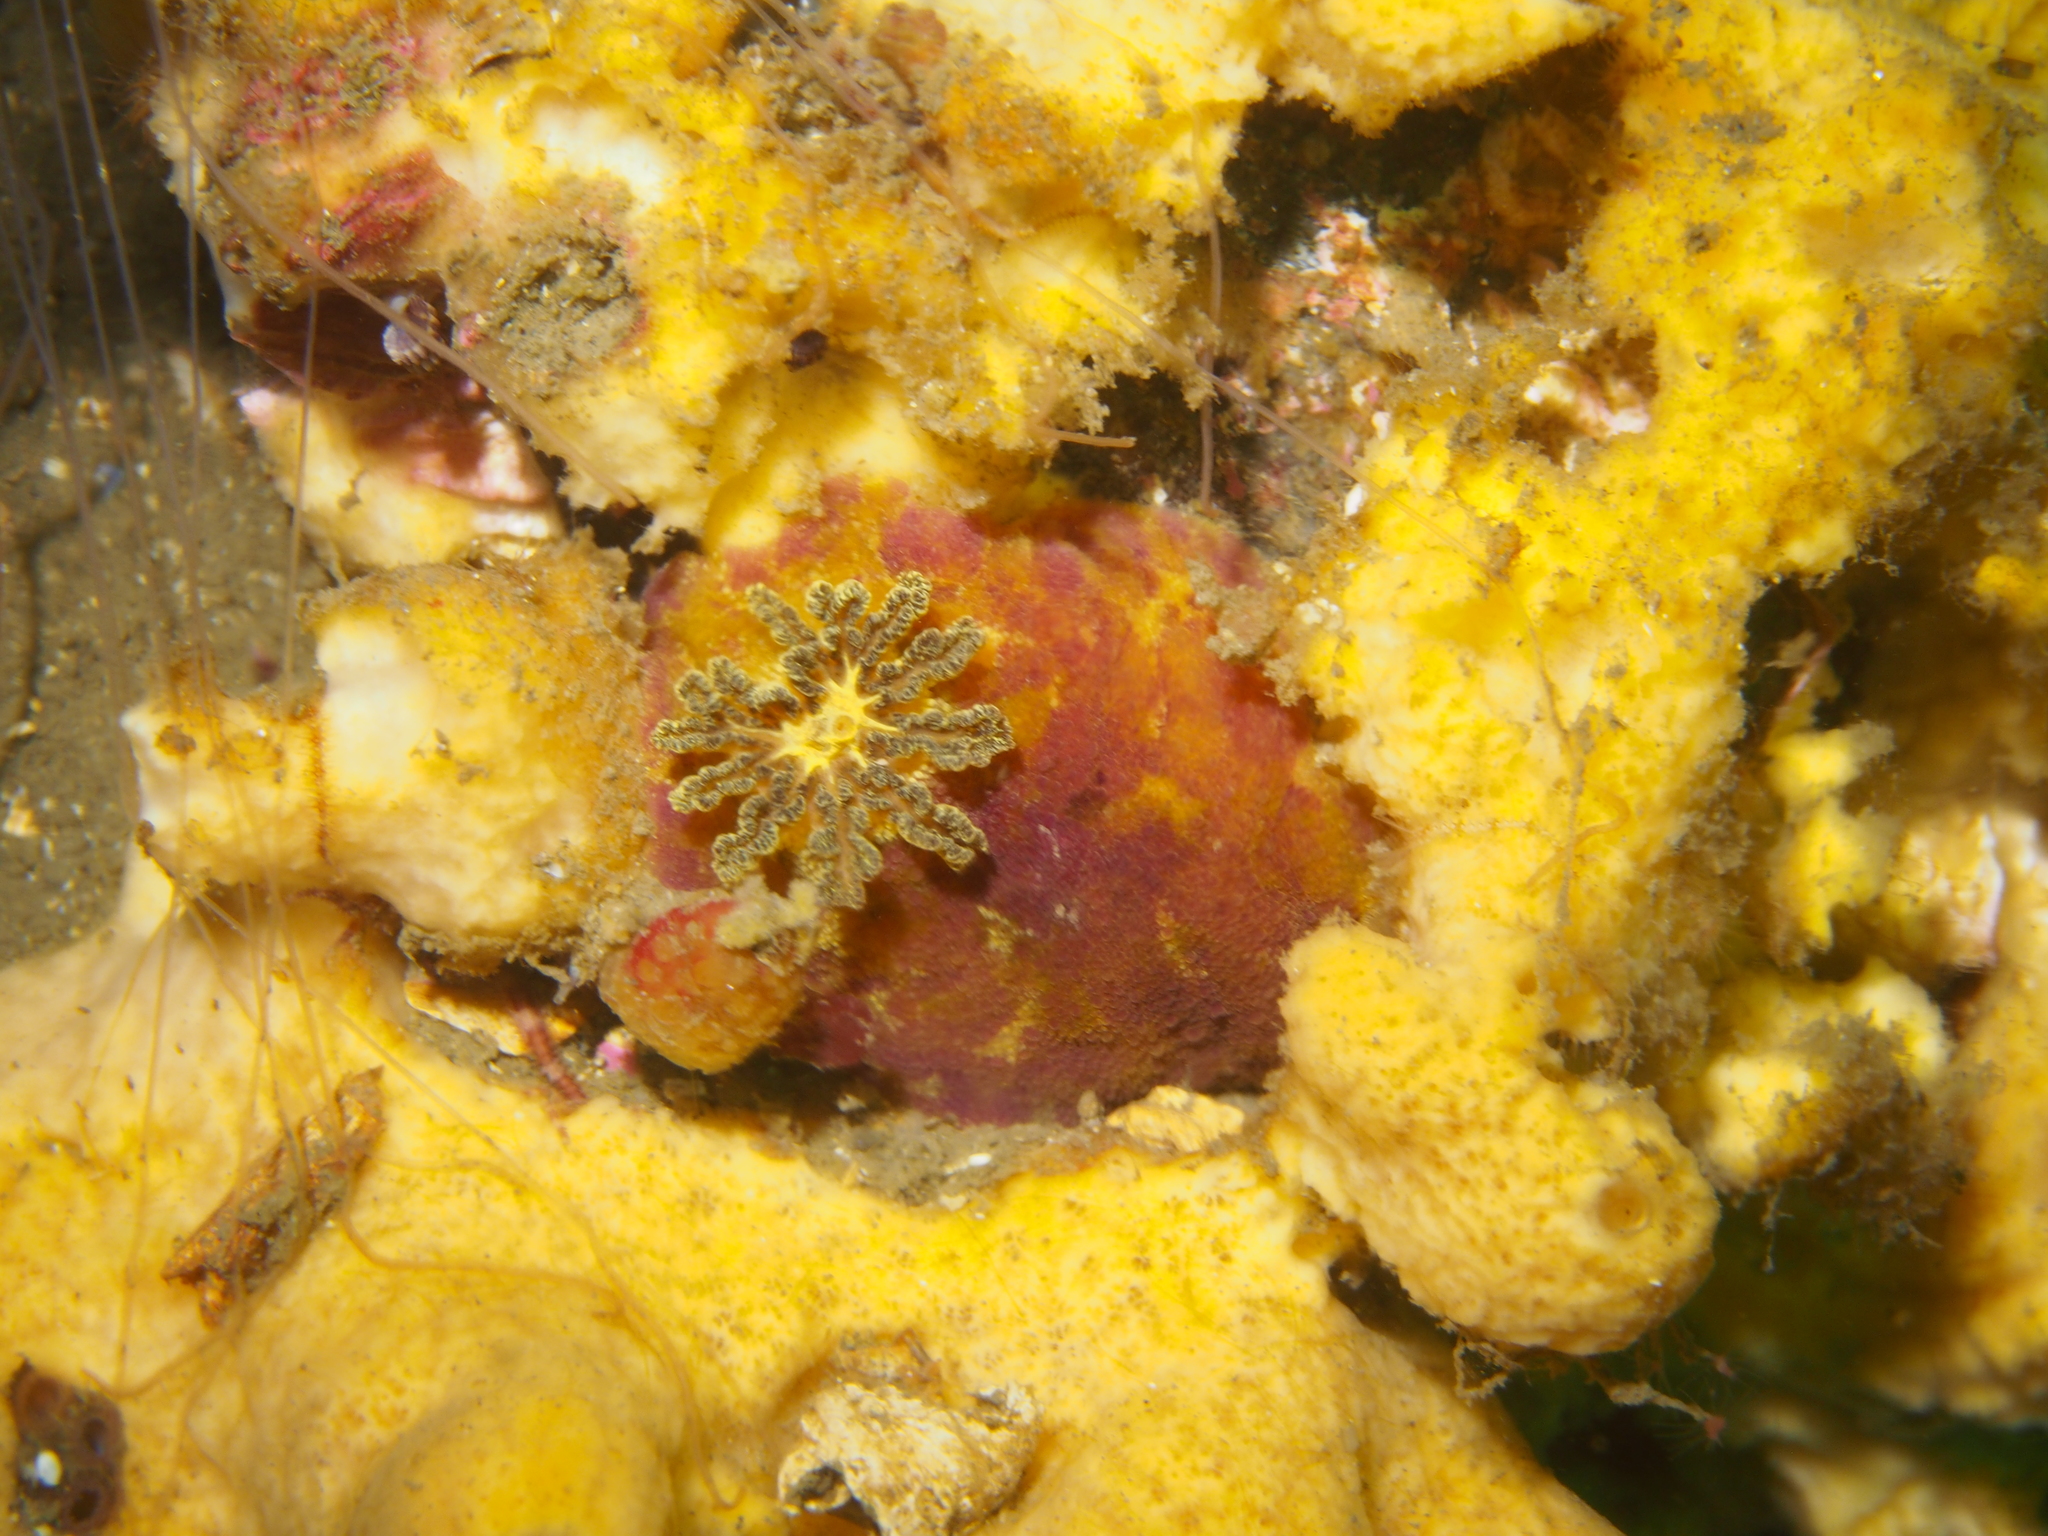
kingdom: Animalia
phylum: Mollusca
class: Gastropoda
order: Nudibranchia
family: Dorididae
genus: Doris
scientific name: Doris pseudoargus
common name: Sea lemon
